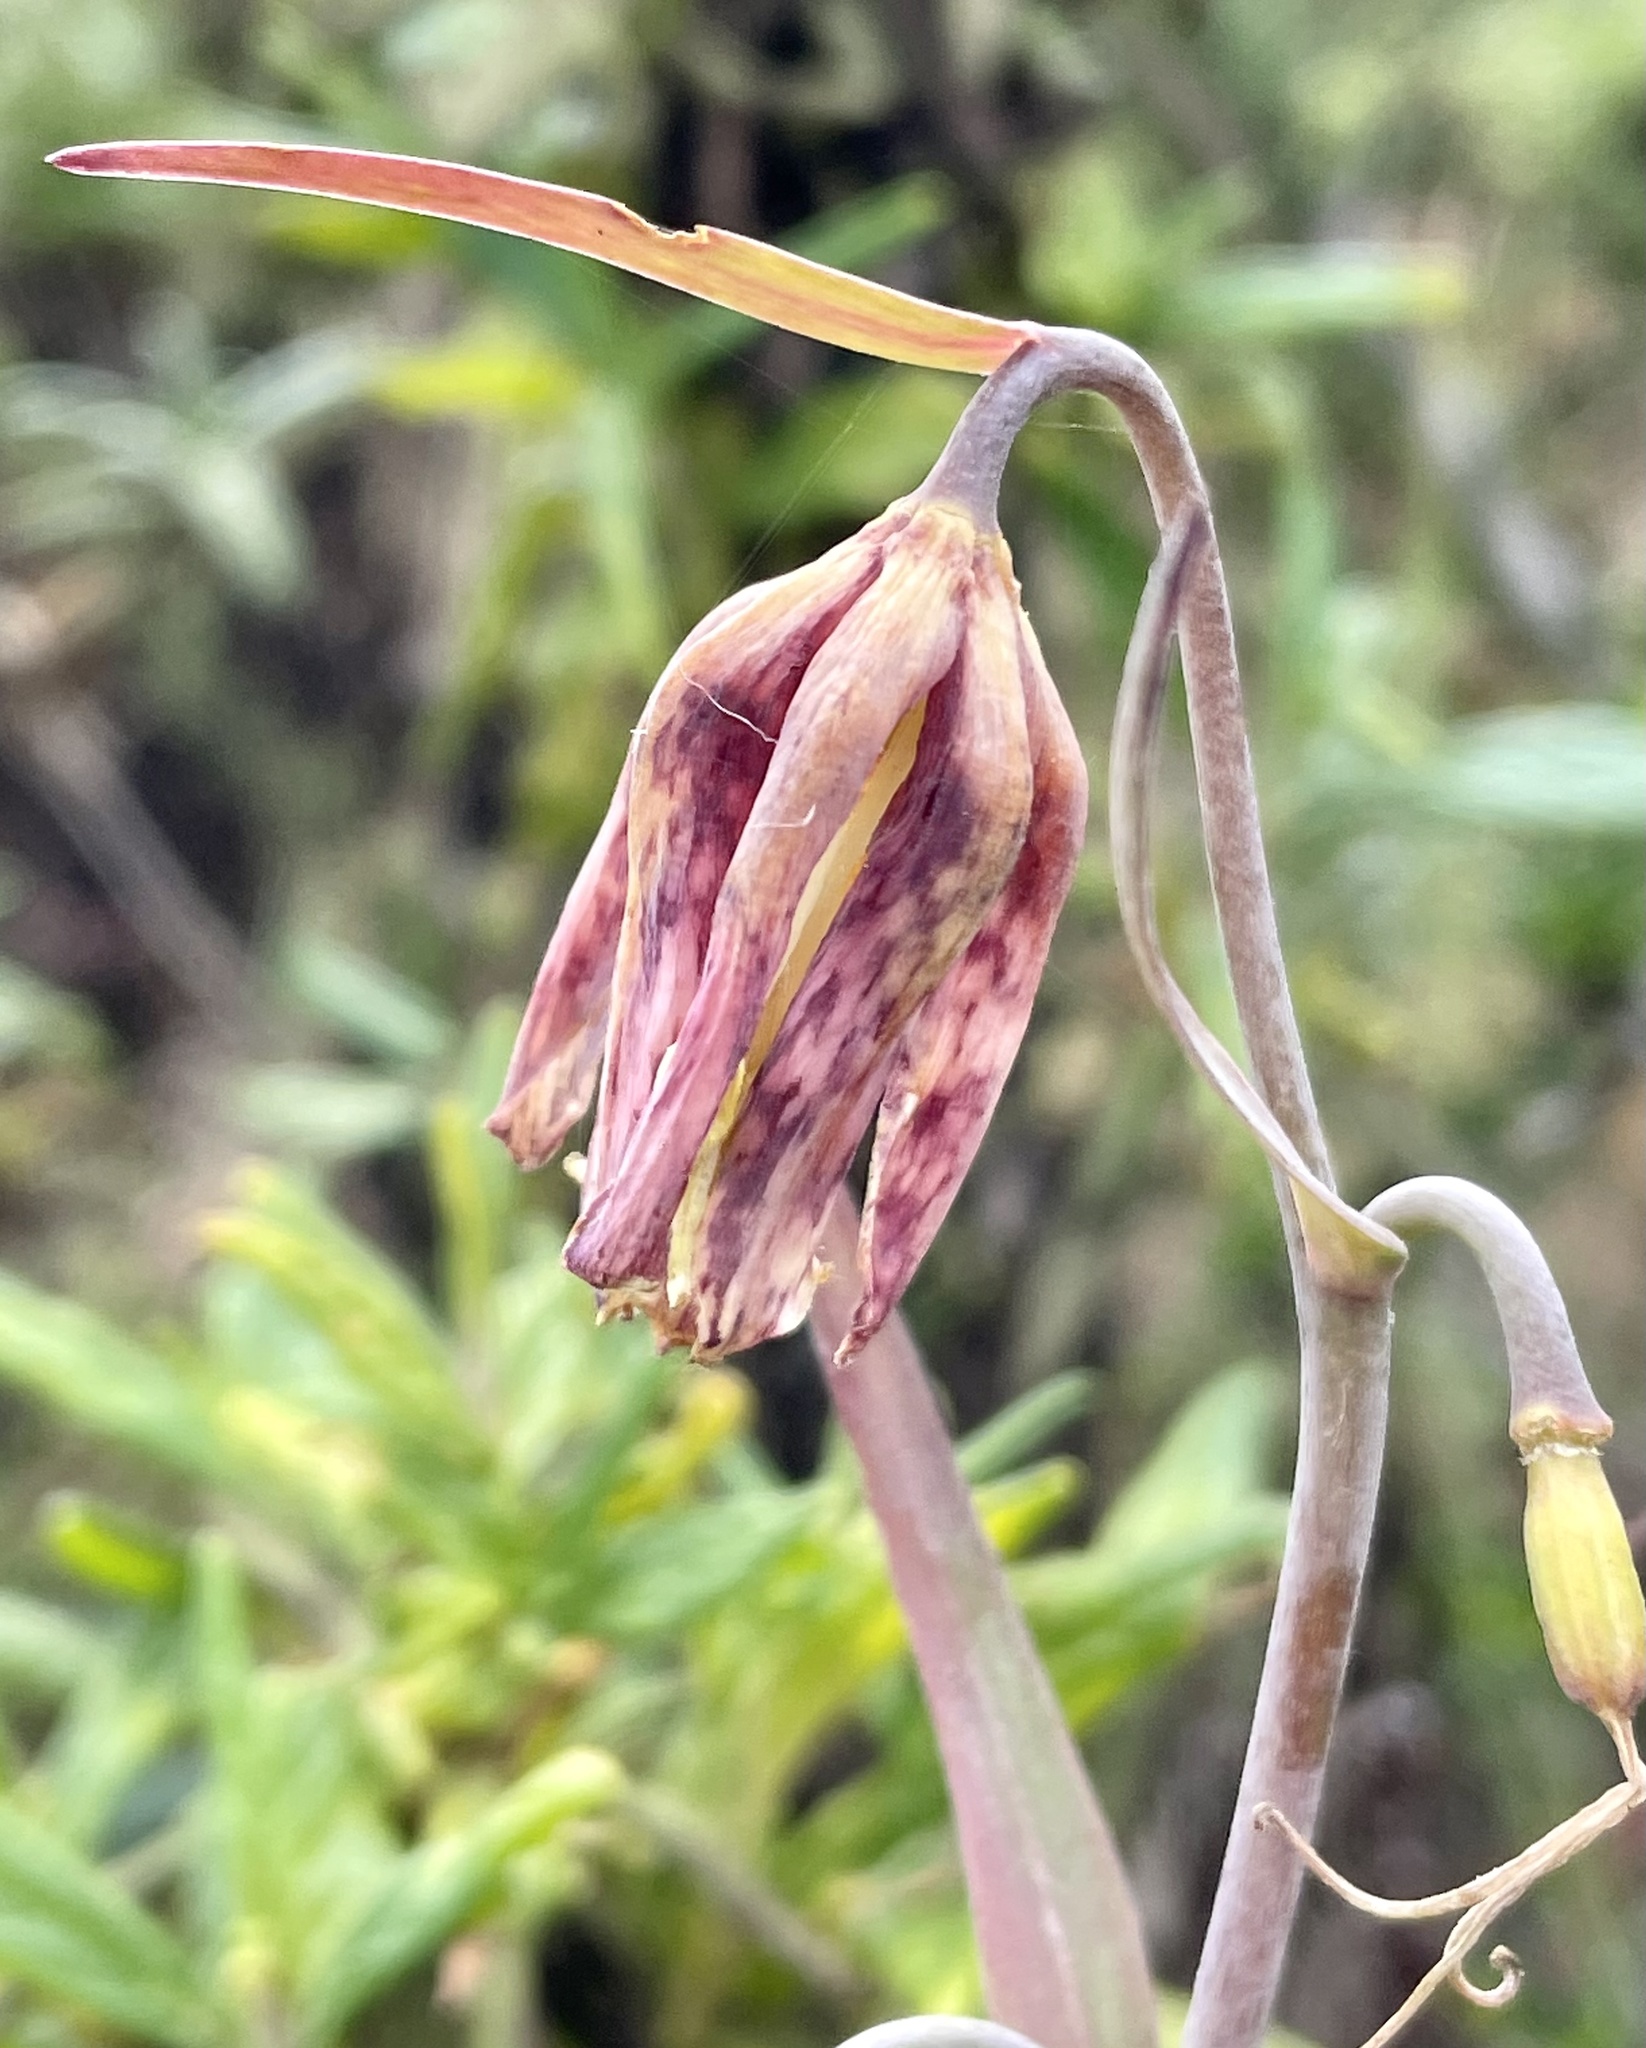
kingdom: Plantae
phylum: Tracheophyta
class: Liliopsida
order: Liliales
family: Liliaceae
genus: Fritillaria
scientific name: Fritillaria affinis
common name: Ojai fritillary
